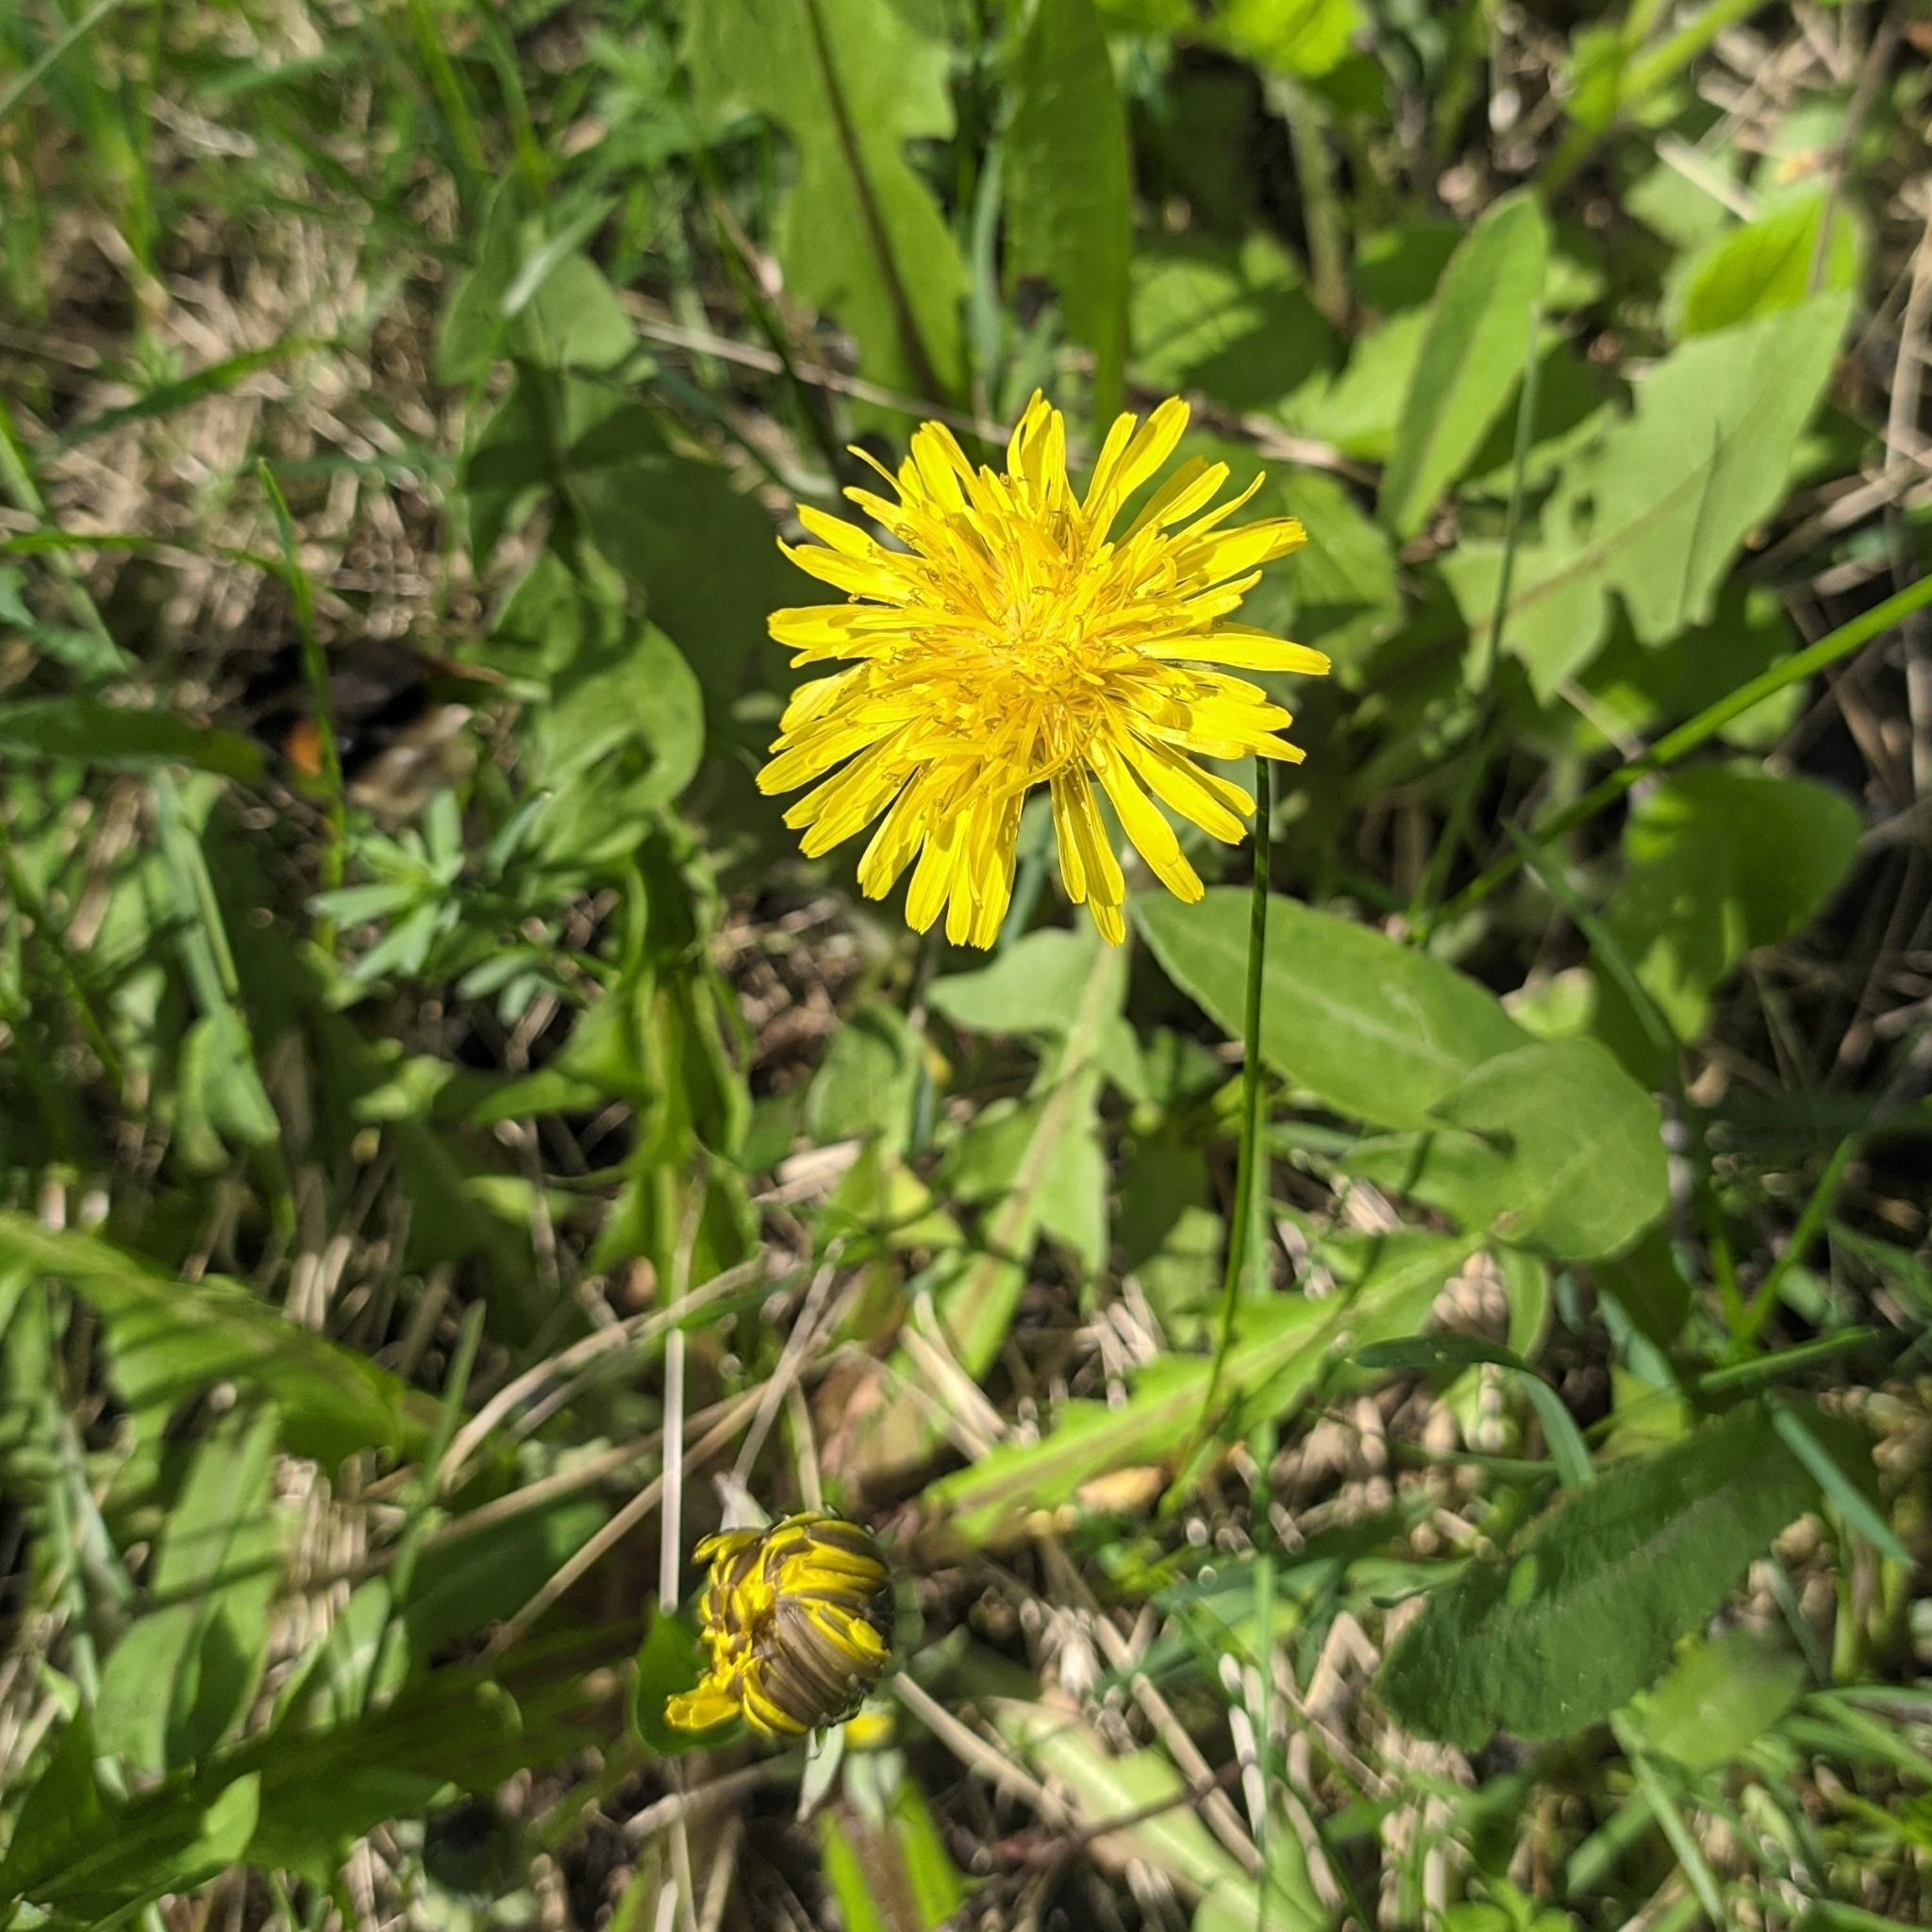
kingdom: Plantae
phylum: Tracheophyta
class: Magnoliopsida
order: Asterales
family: Asteraceae
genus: Taraxacum
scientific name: Taraxacum officinale
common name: Common dandelion
